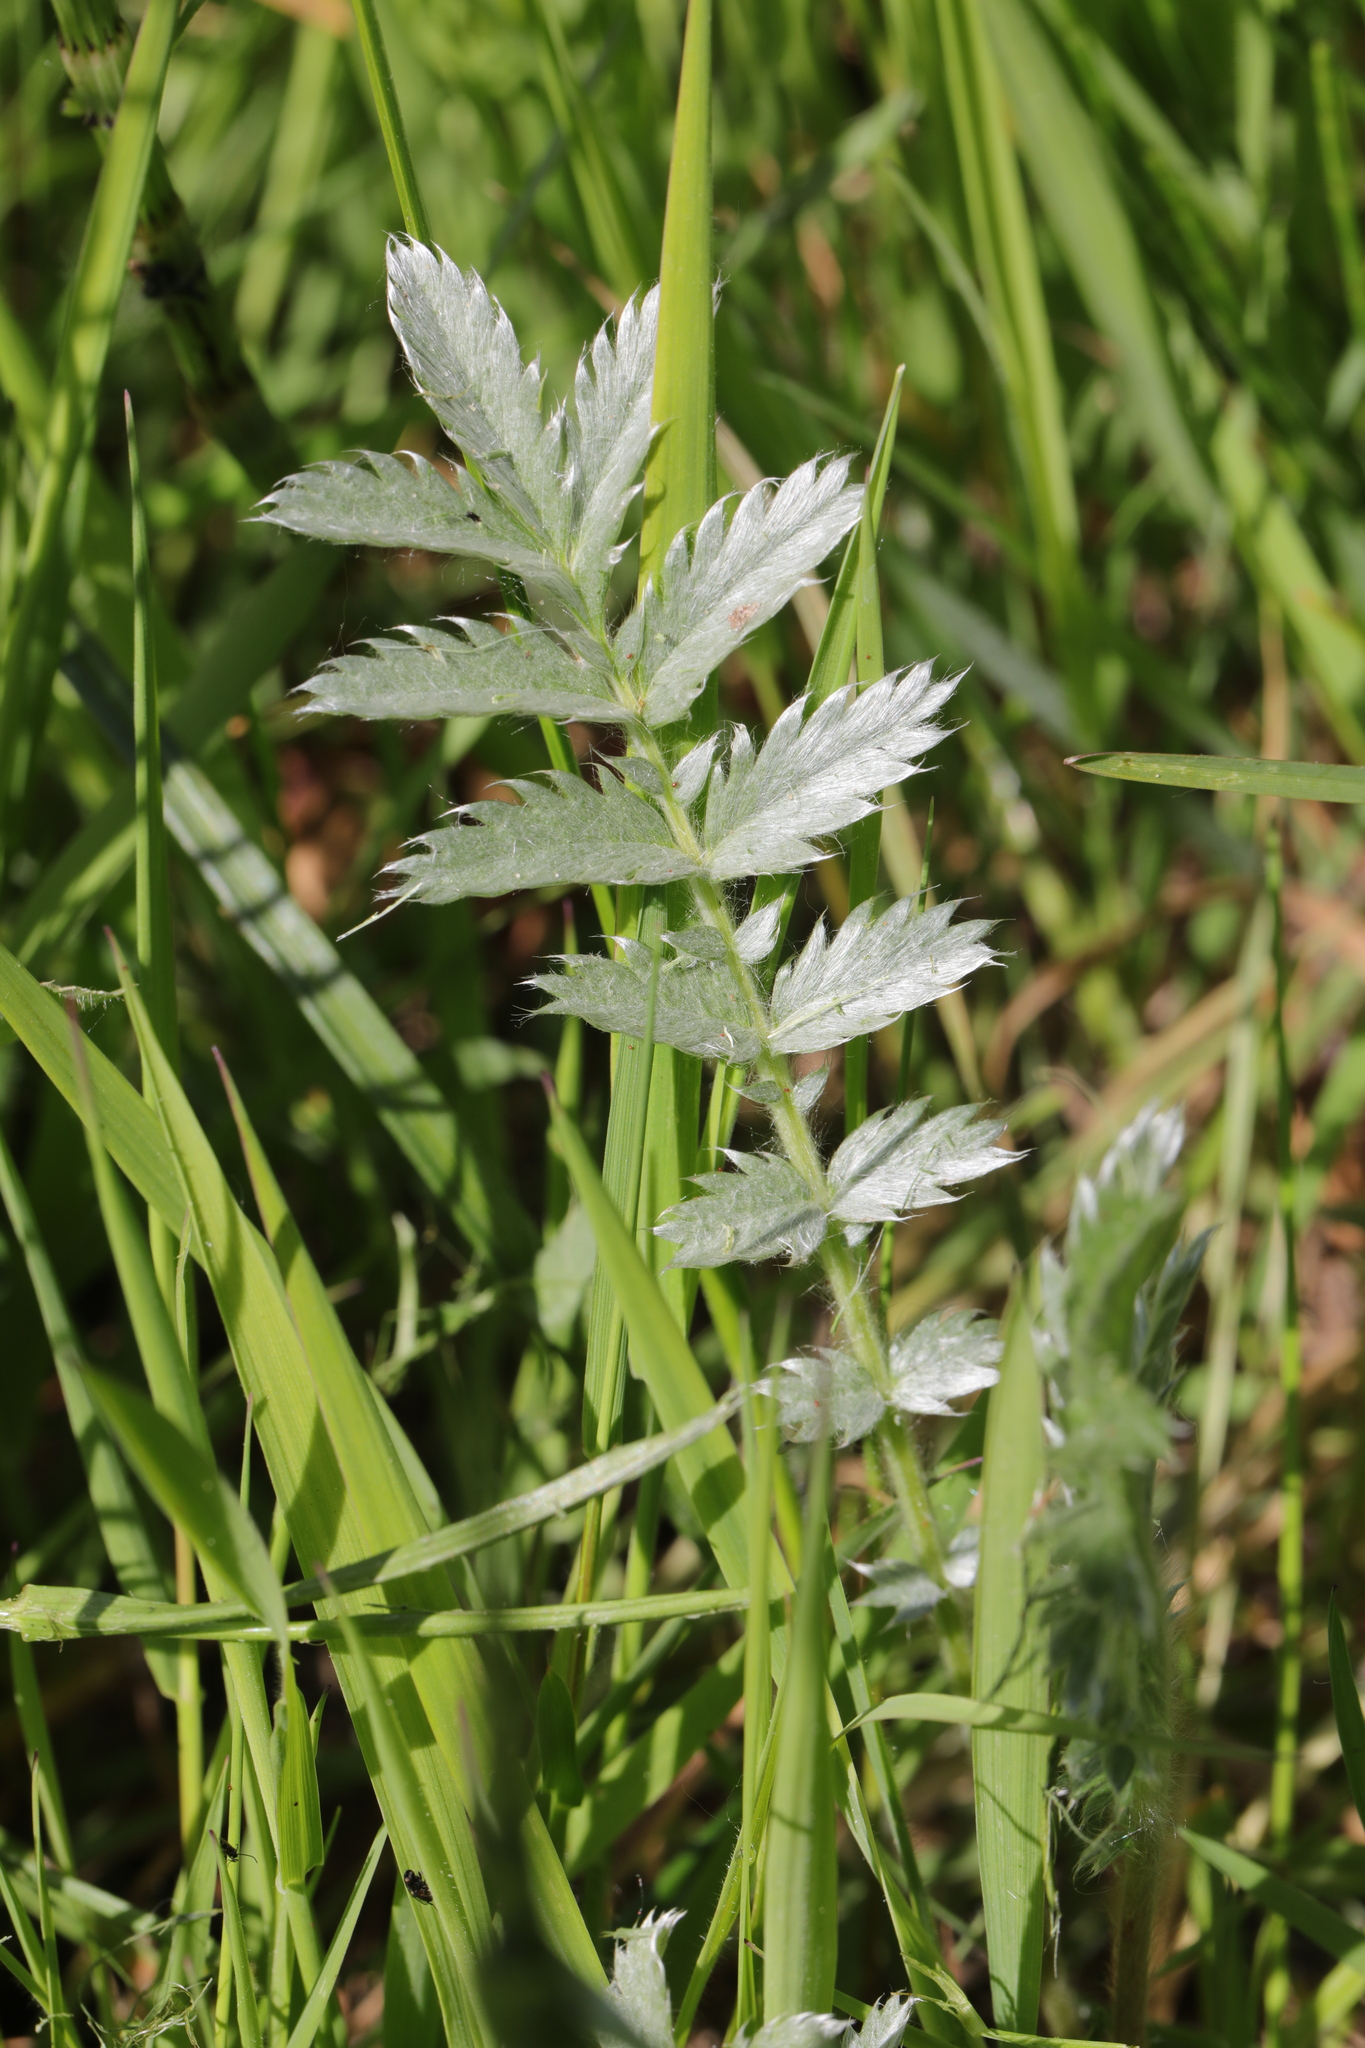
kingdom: Plantae
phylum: Tracheophyta
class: Magnoliopsida
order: Rosales
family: Rosaceae
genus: Argentina
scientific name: Argentina anserina
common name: Common silverweed
